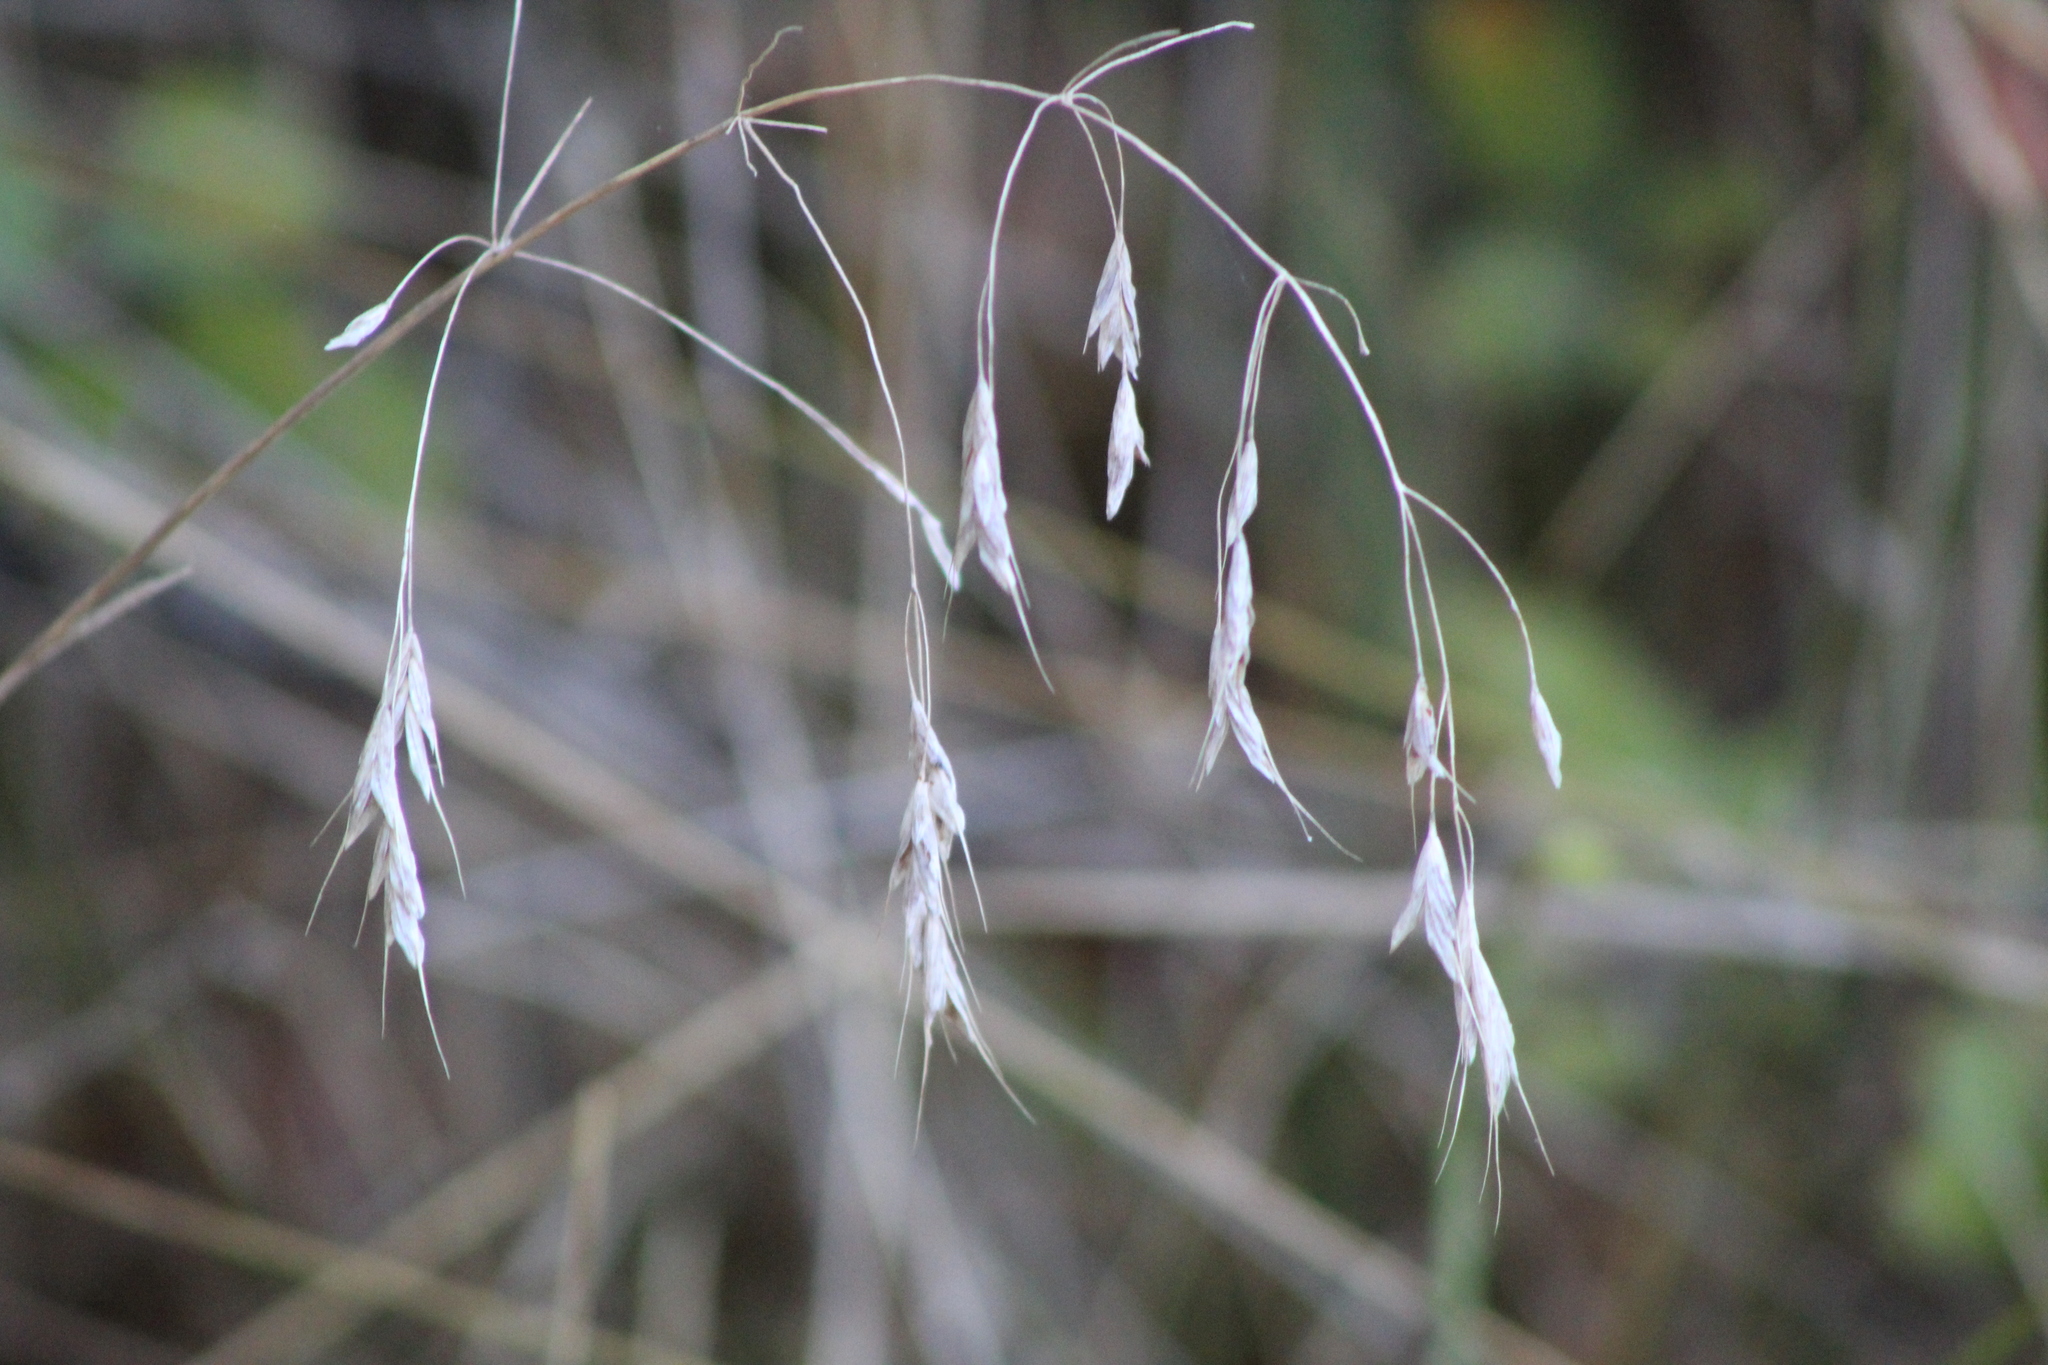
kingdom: Plantae
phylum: Tracheophyta
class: Liliopsida
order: Poales
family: Poaceae
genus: Bromus
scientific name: Bromus japonicus
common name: Japanese brome
